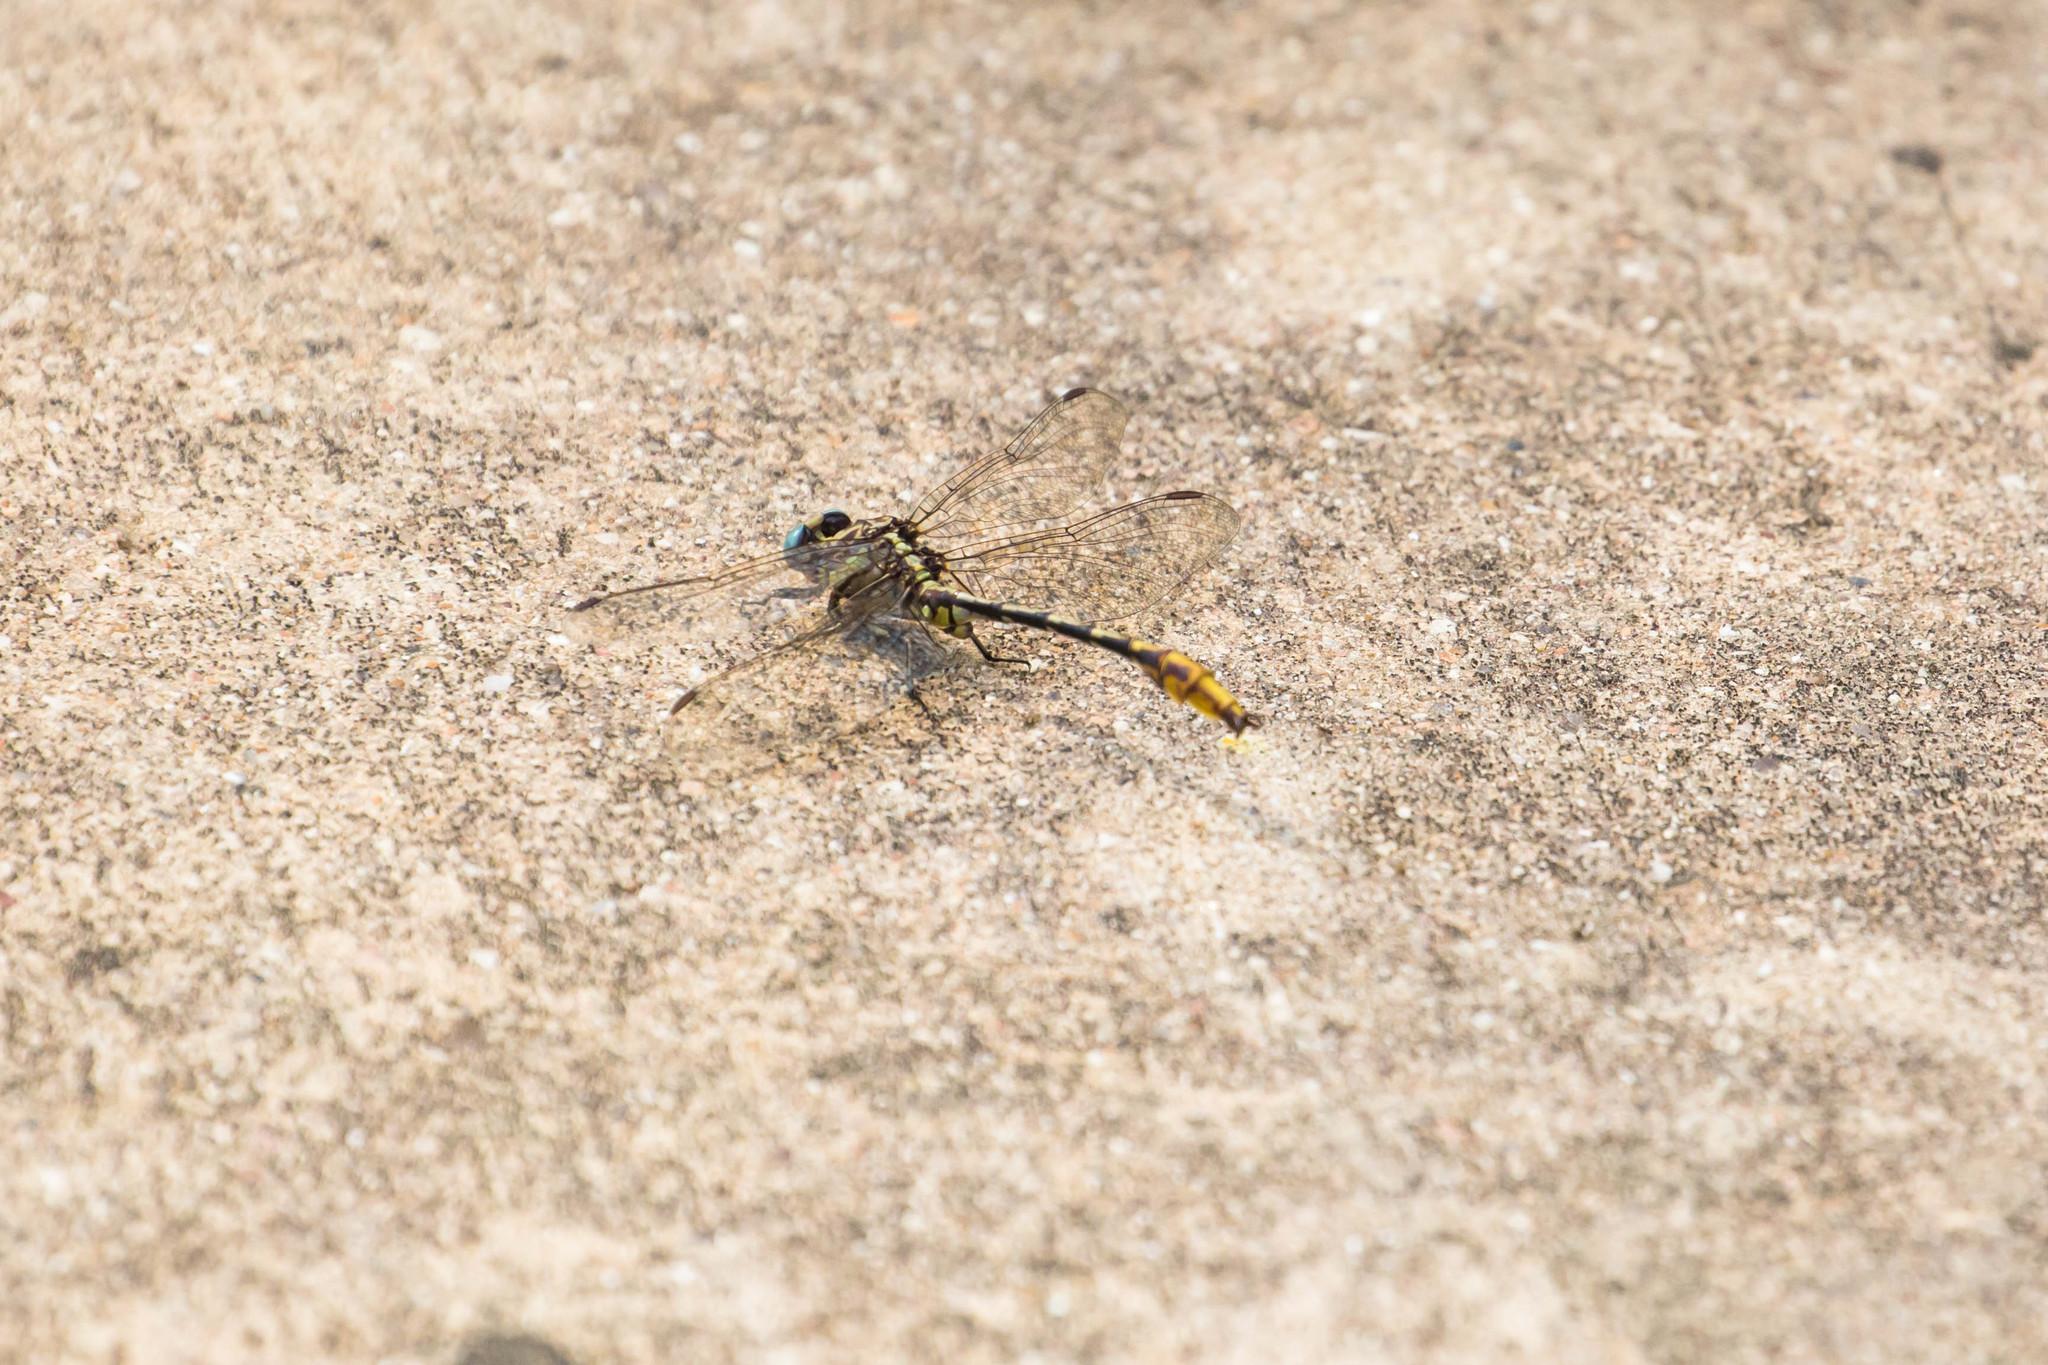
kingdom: Animalia
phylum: Arthropoda
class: Insecta
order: Odonata
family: Gomphidae
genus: Phanogomphus
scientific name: Phanogomphus militaris
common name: Sulphur-tipped clubtail
